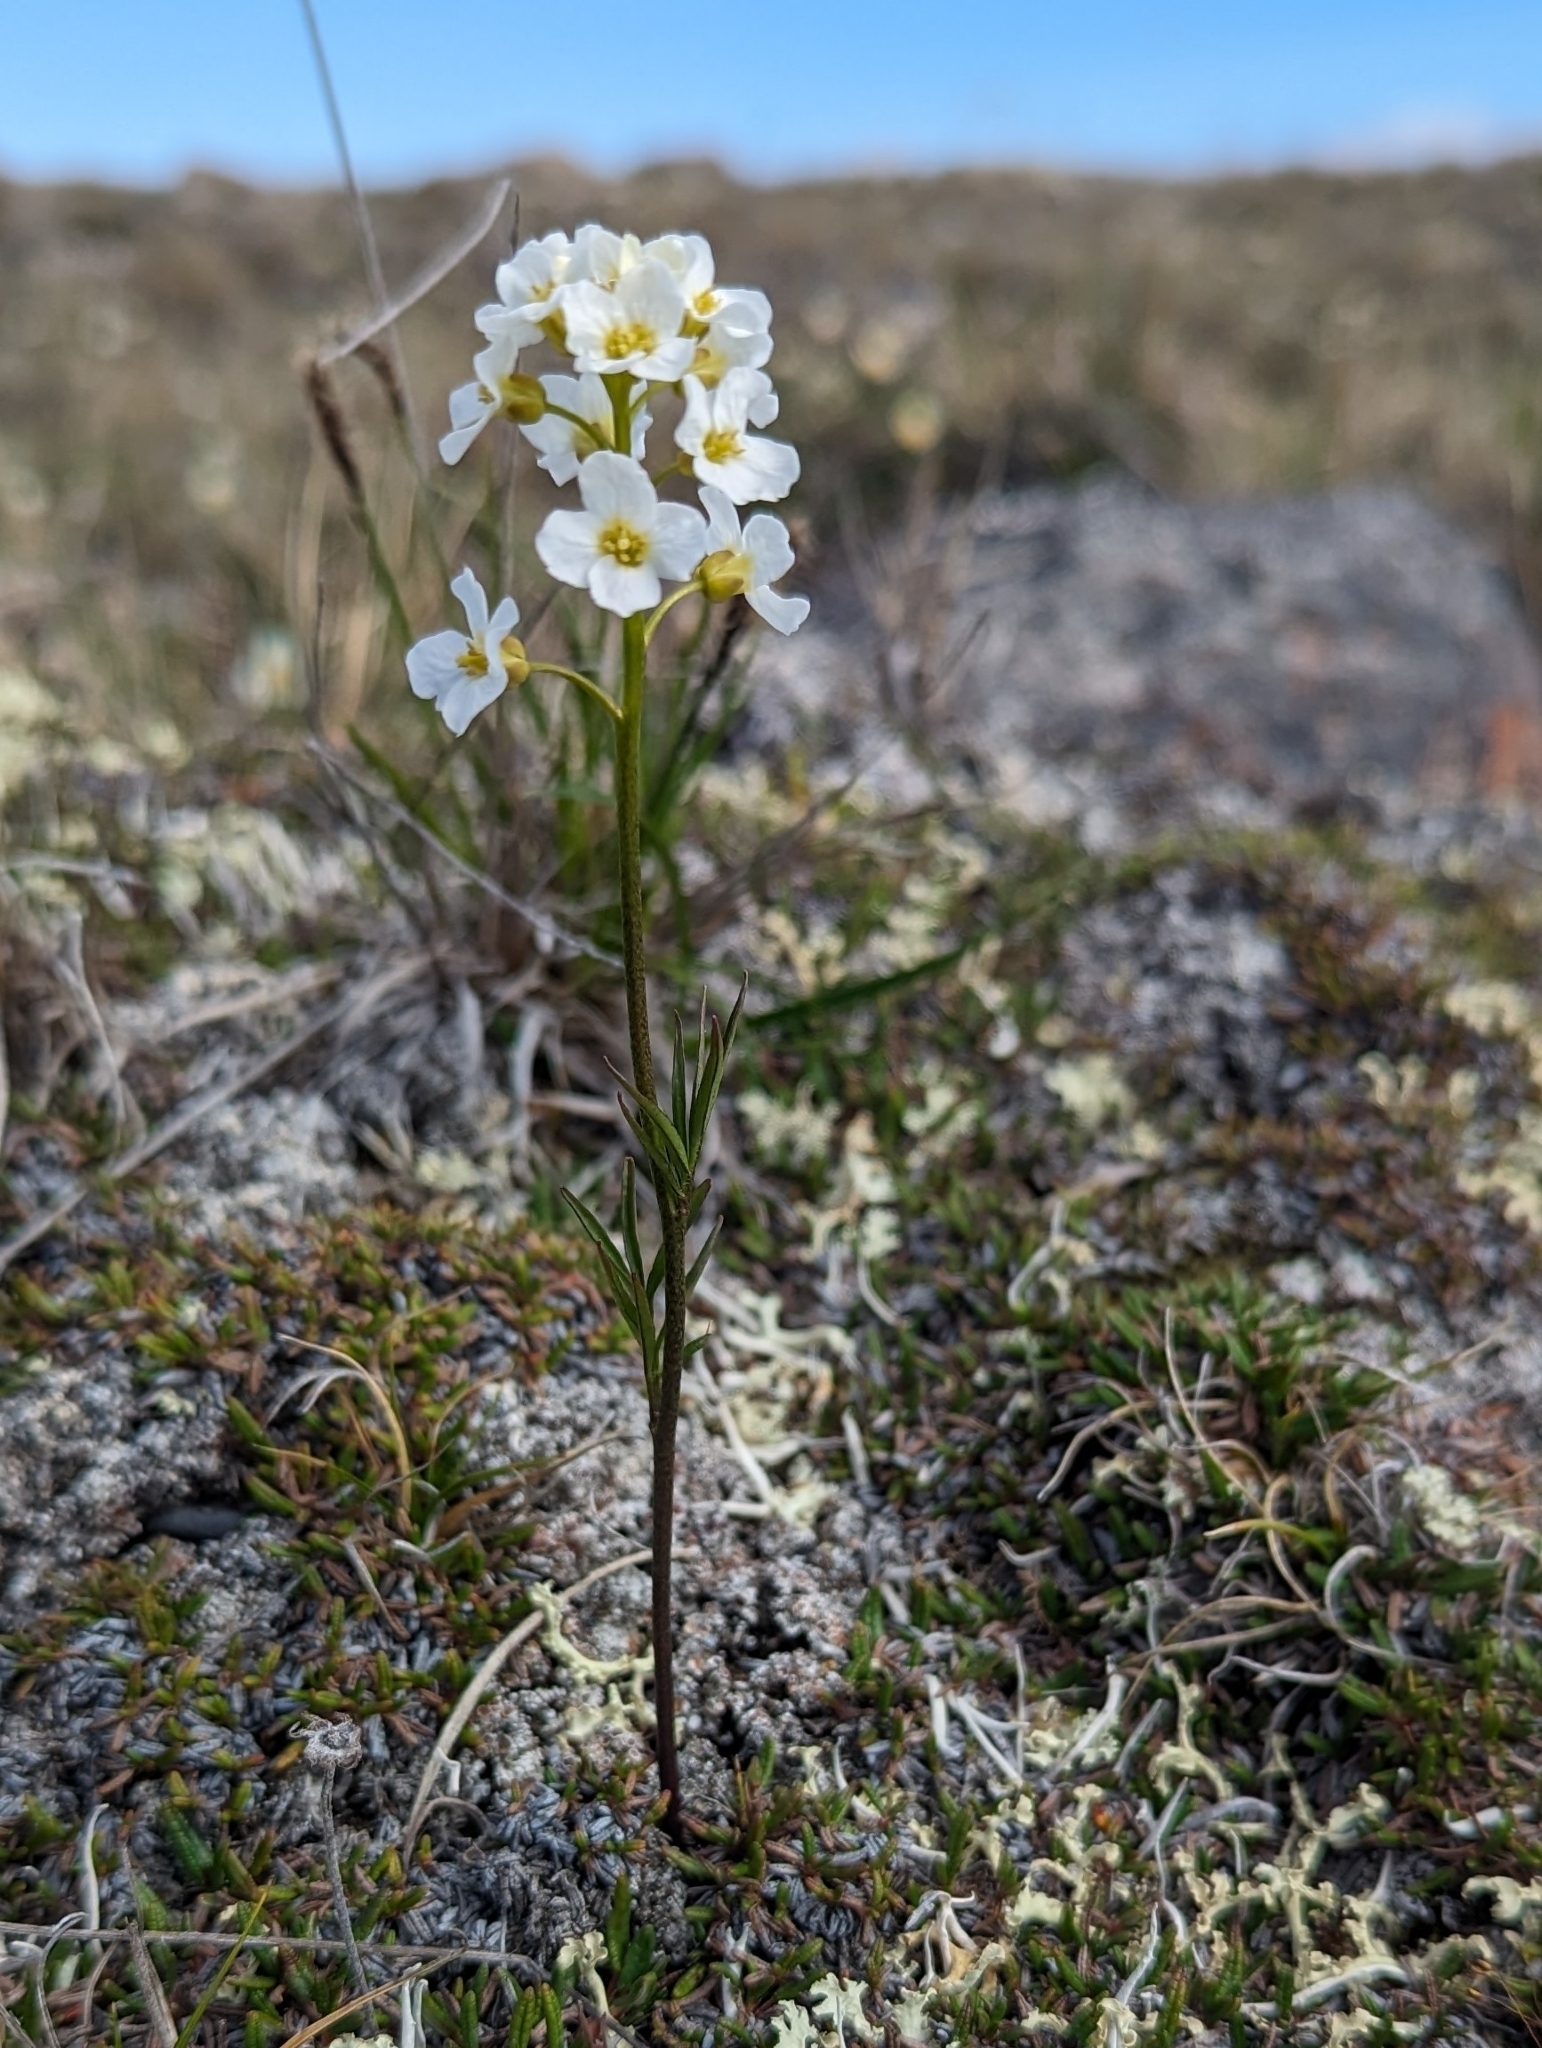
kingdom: Plantae
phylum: Tracheophyta
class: Magnoliopsida
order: Brassicales
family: Brassicaceae
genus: Cardamine
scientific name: Cardamine digitata
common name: Richardson's bittercress
